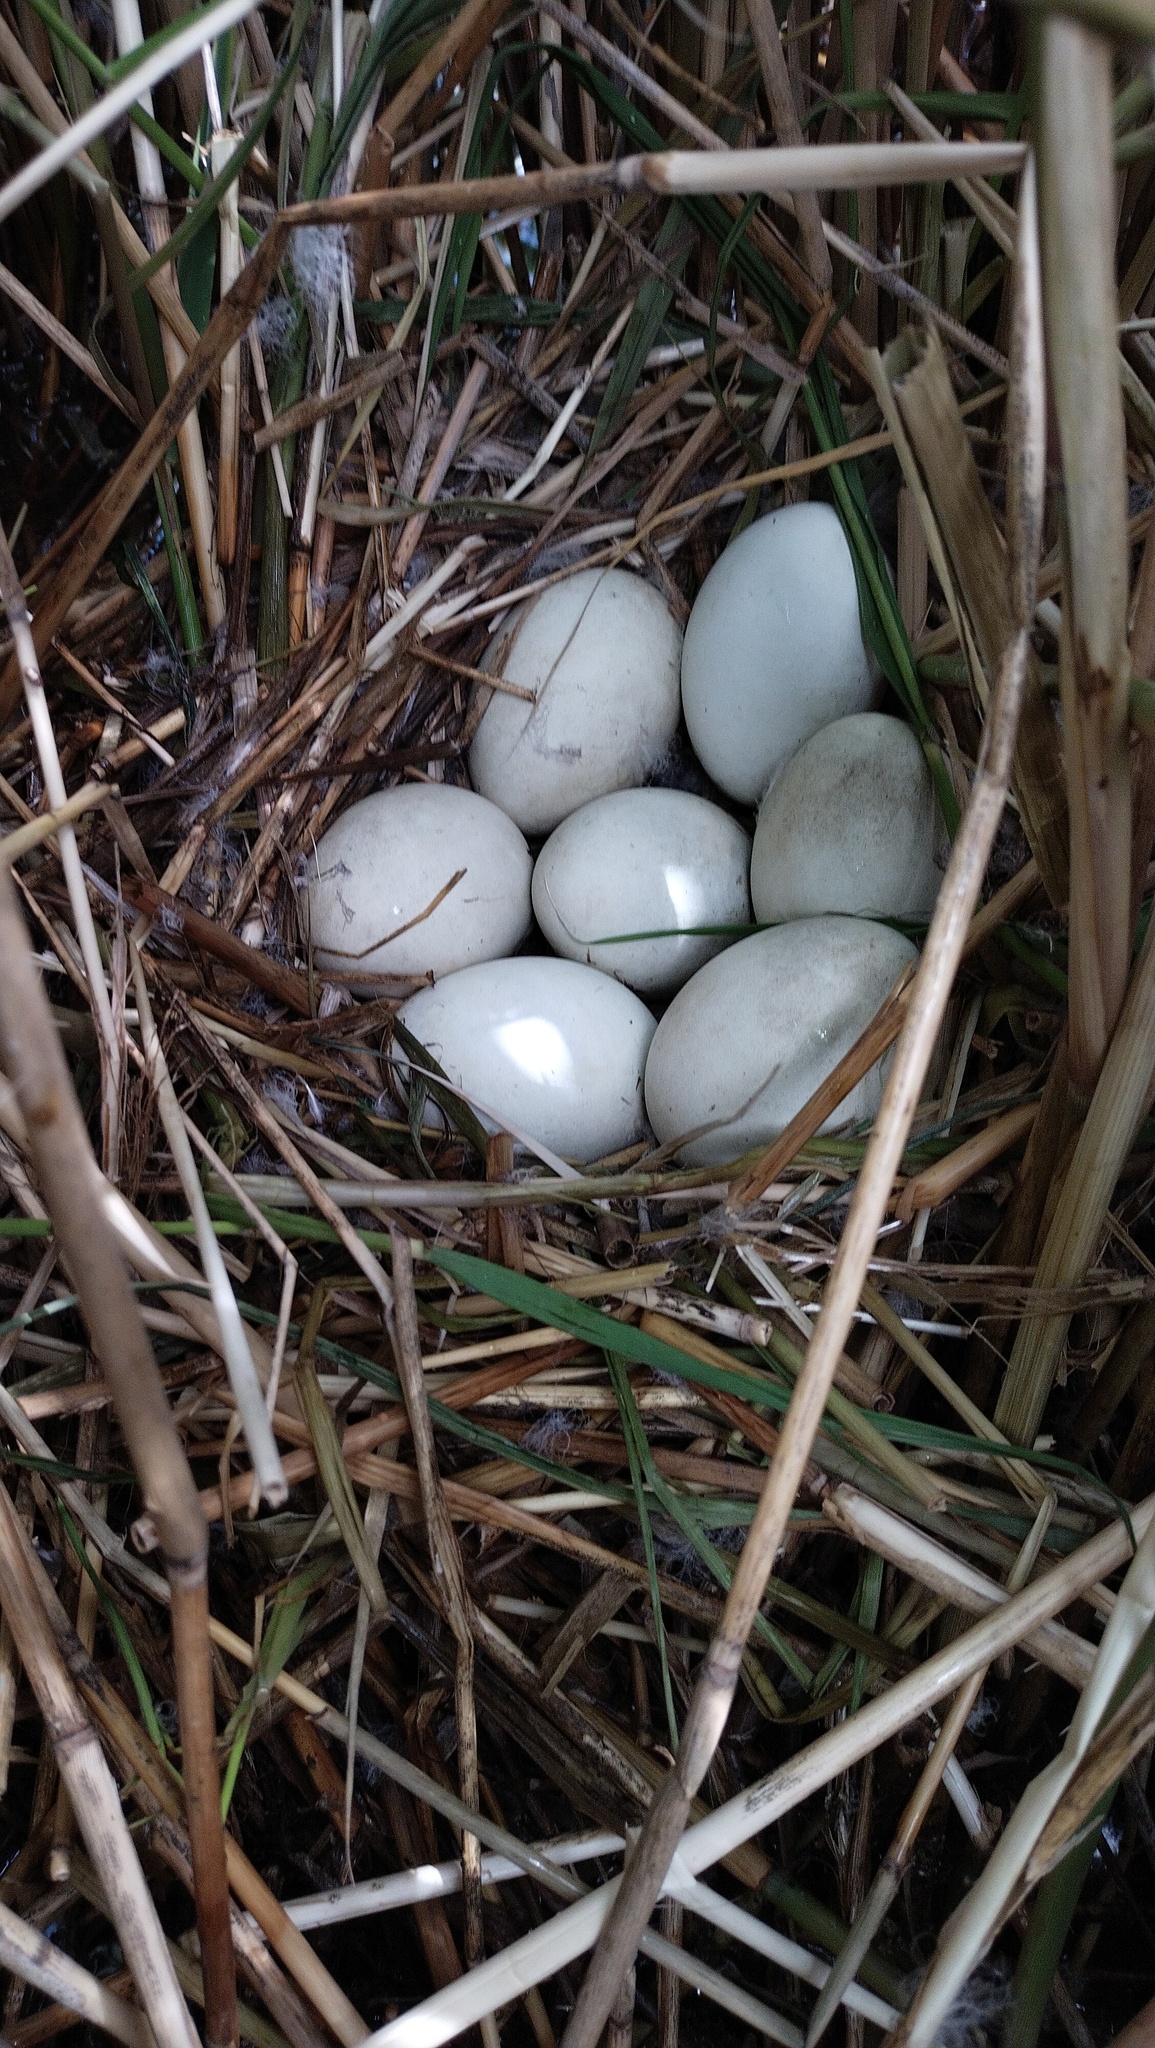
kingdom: Animalia
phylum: Chordata
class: Aves
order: Anseriformes
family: Anatidae
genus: Oxyura
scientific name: Oxyura leucocephala
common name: White-headed duck
